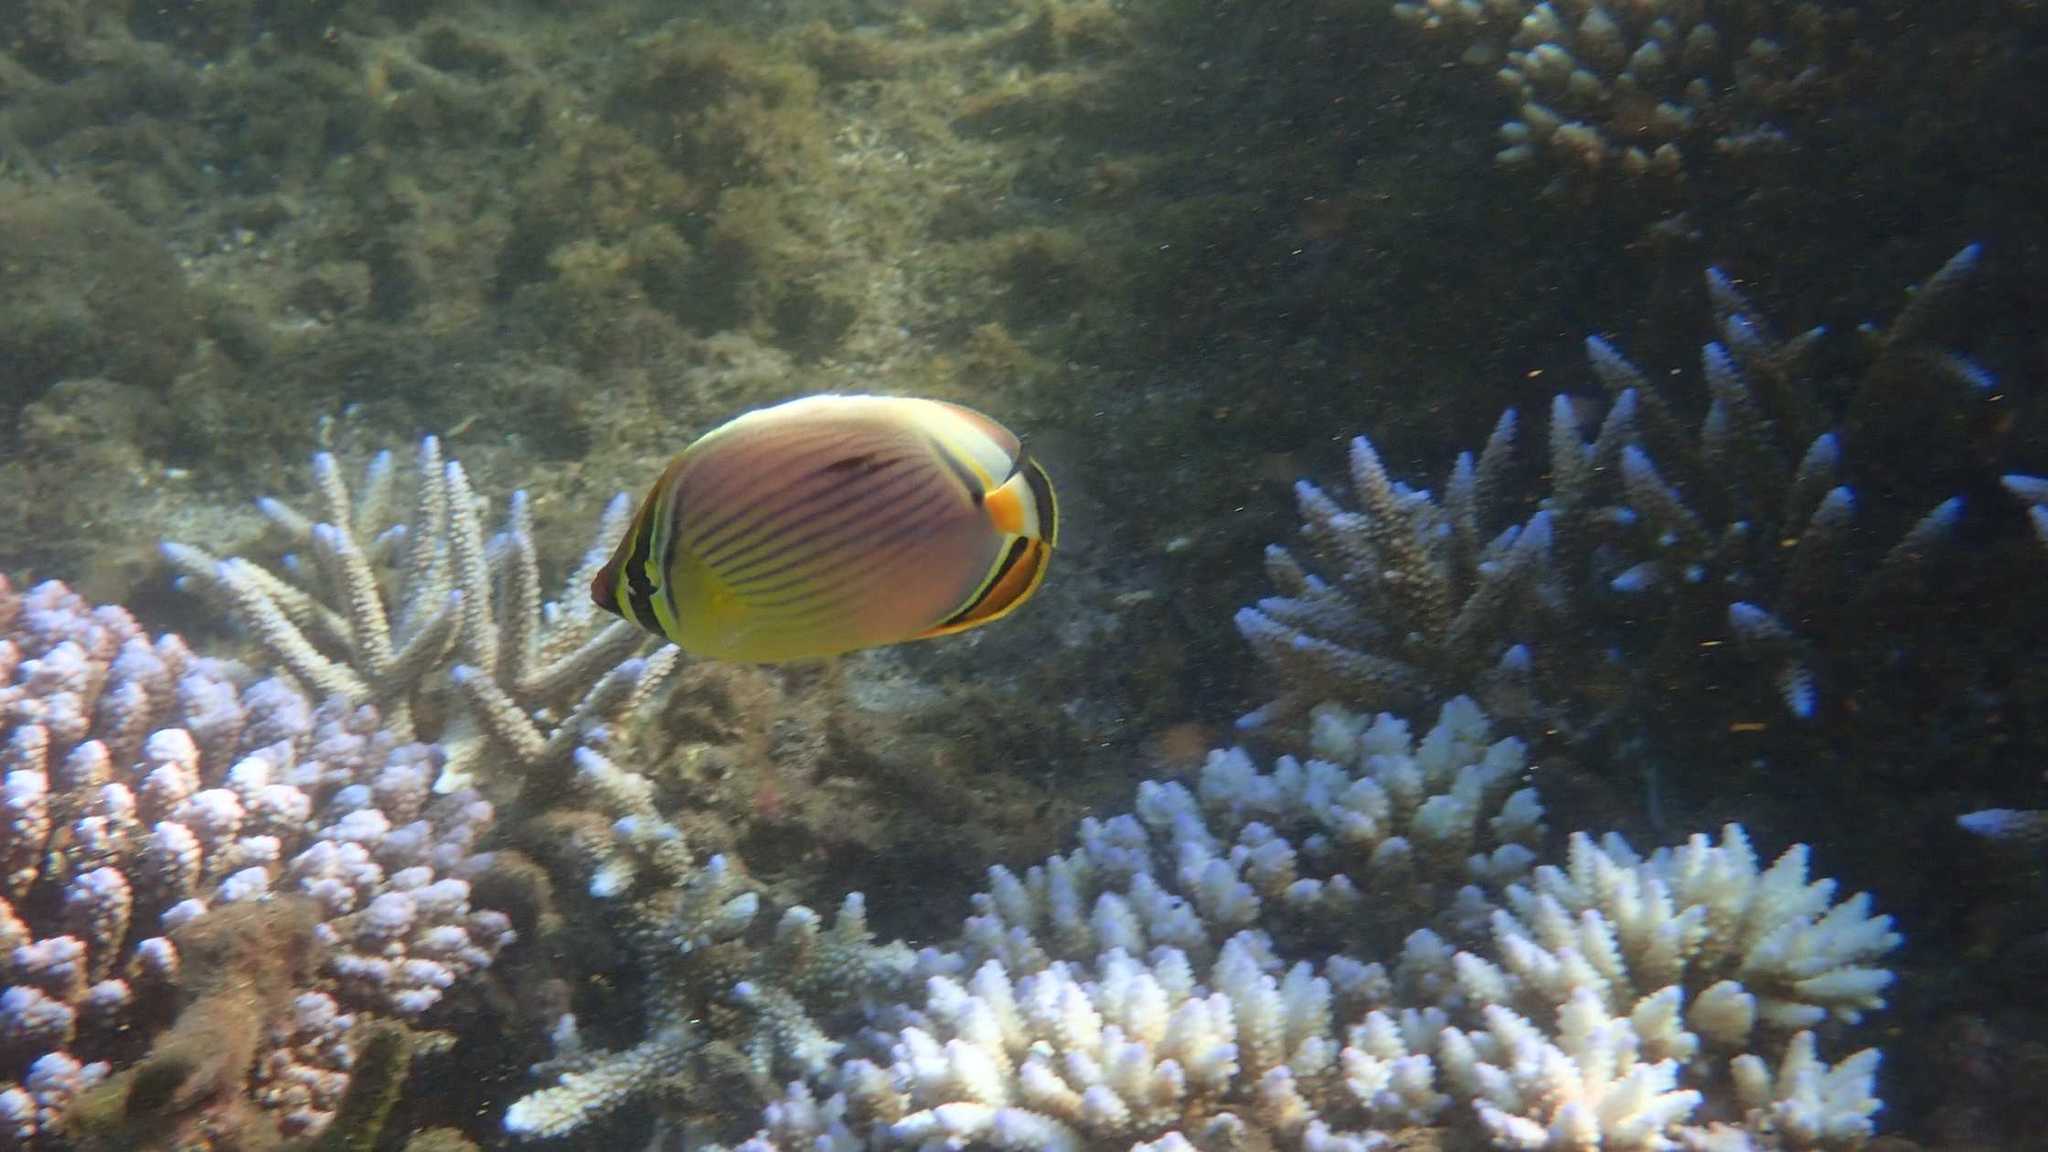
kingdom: Animalia
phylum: Chordata
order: Perciformes
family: Chaetodontidae
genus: Chaetodon
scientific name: Chaetodon trifasciatus
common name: Redfin butterflyfish
